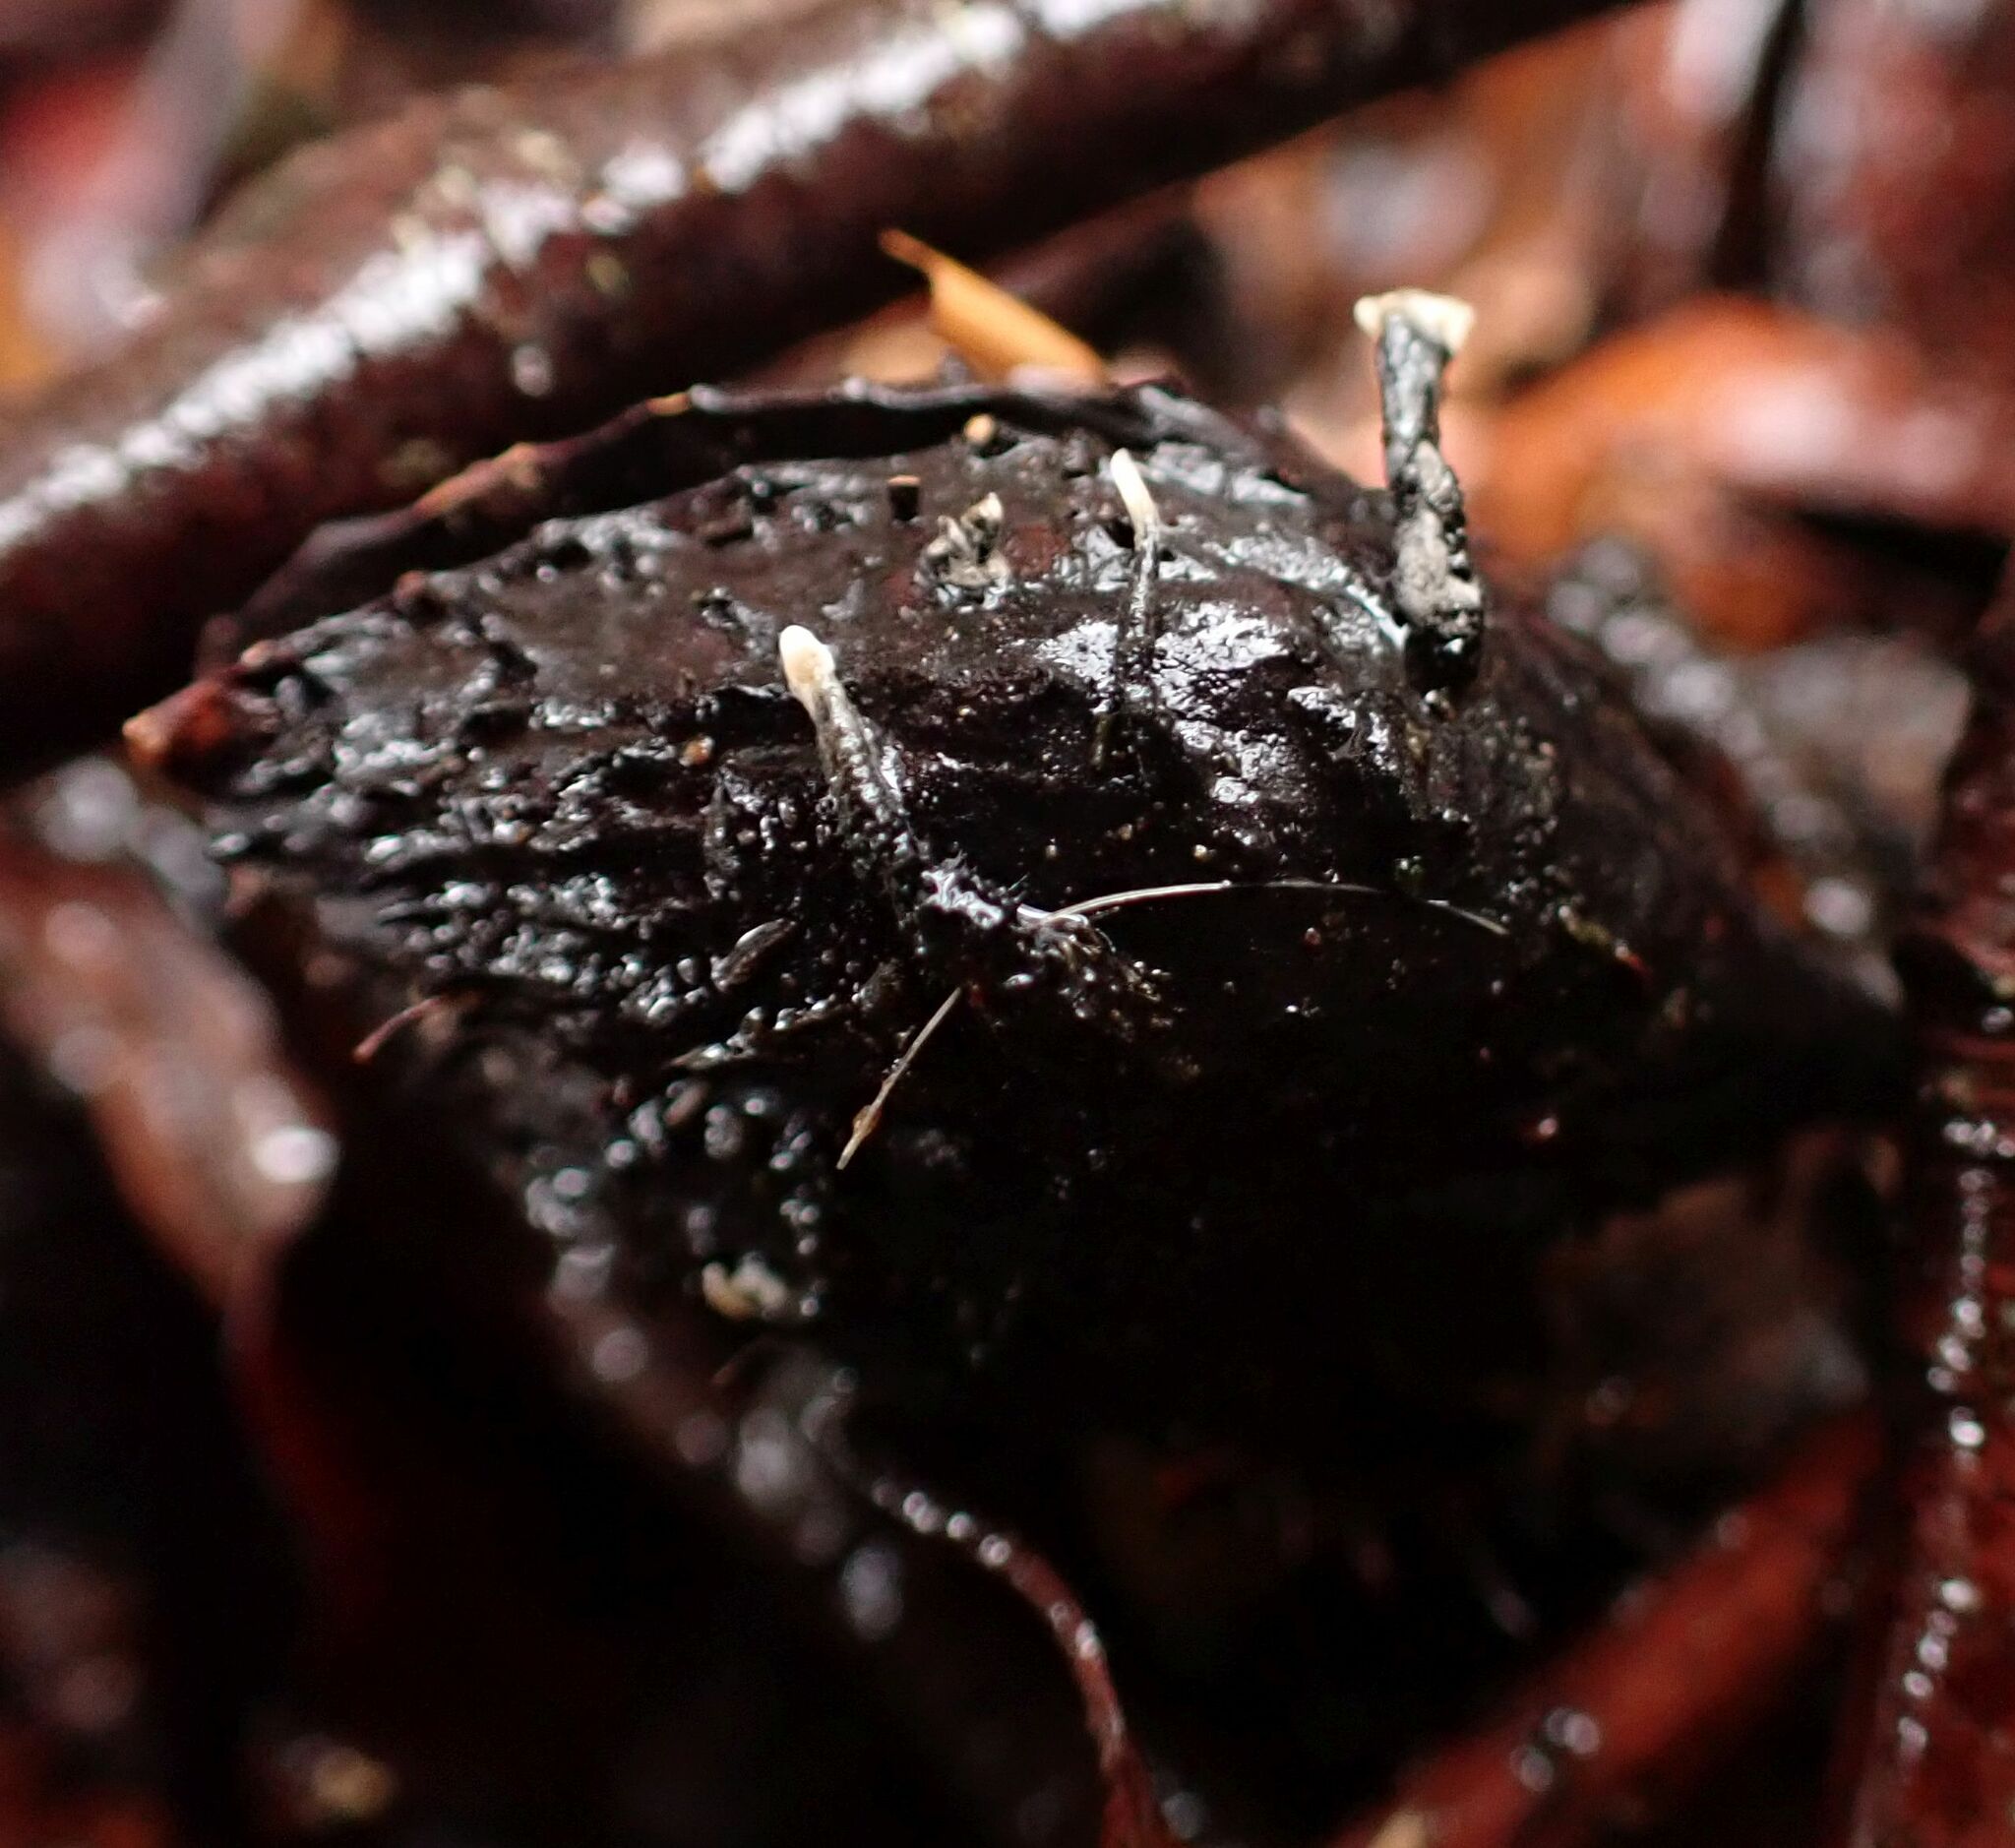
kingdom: Fungi
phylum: Ascomycota
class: Sordariomycetes
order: Xylariales
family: Xylariaceae
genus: Xylaria
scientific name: Xylaria carpophila
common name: Beechmast candlesnuff
